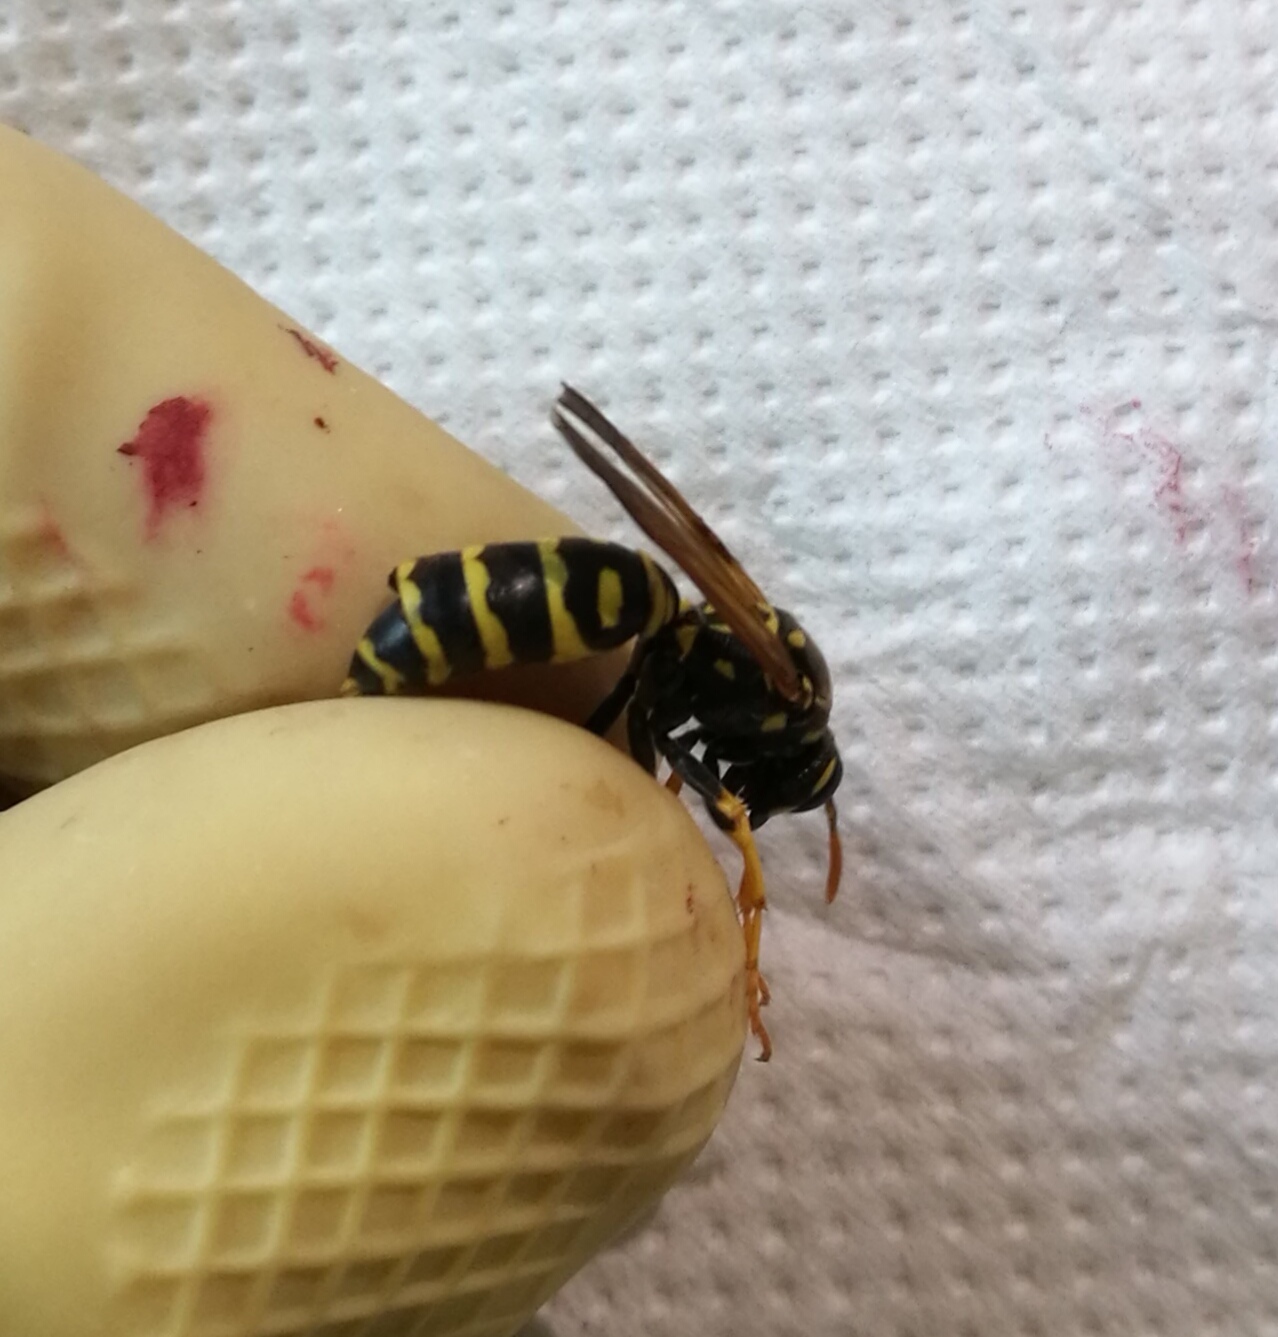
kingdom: Animalia
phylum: Arthropoda
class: Insecta
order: Strepsiptera
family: Xenidae
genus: Xenos
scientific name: Xenos vesparum
